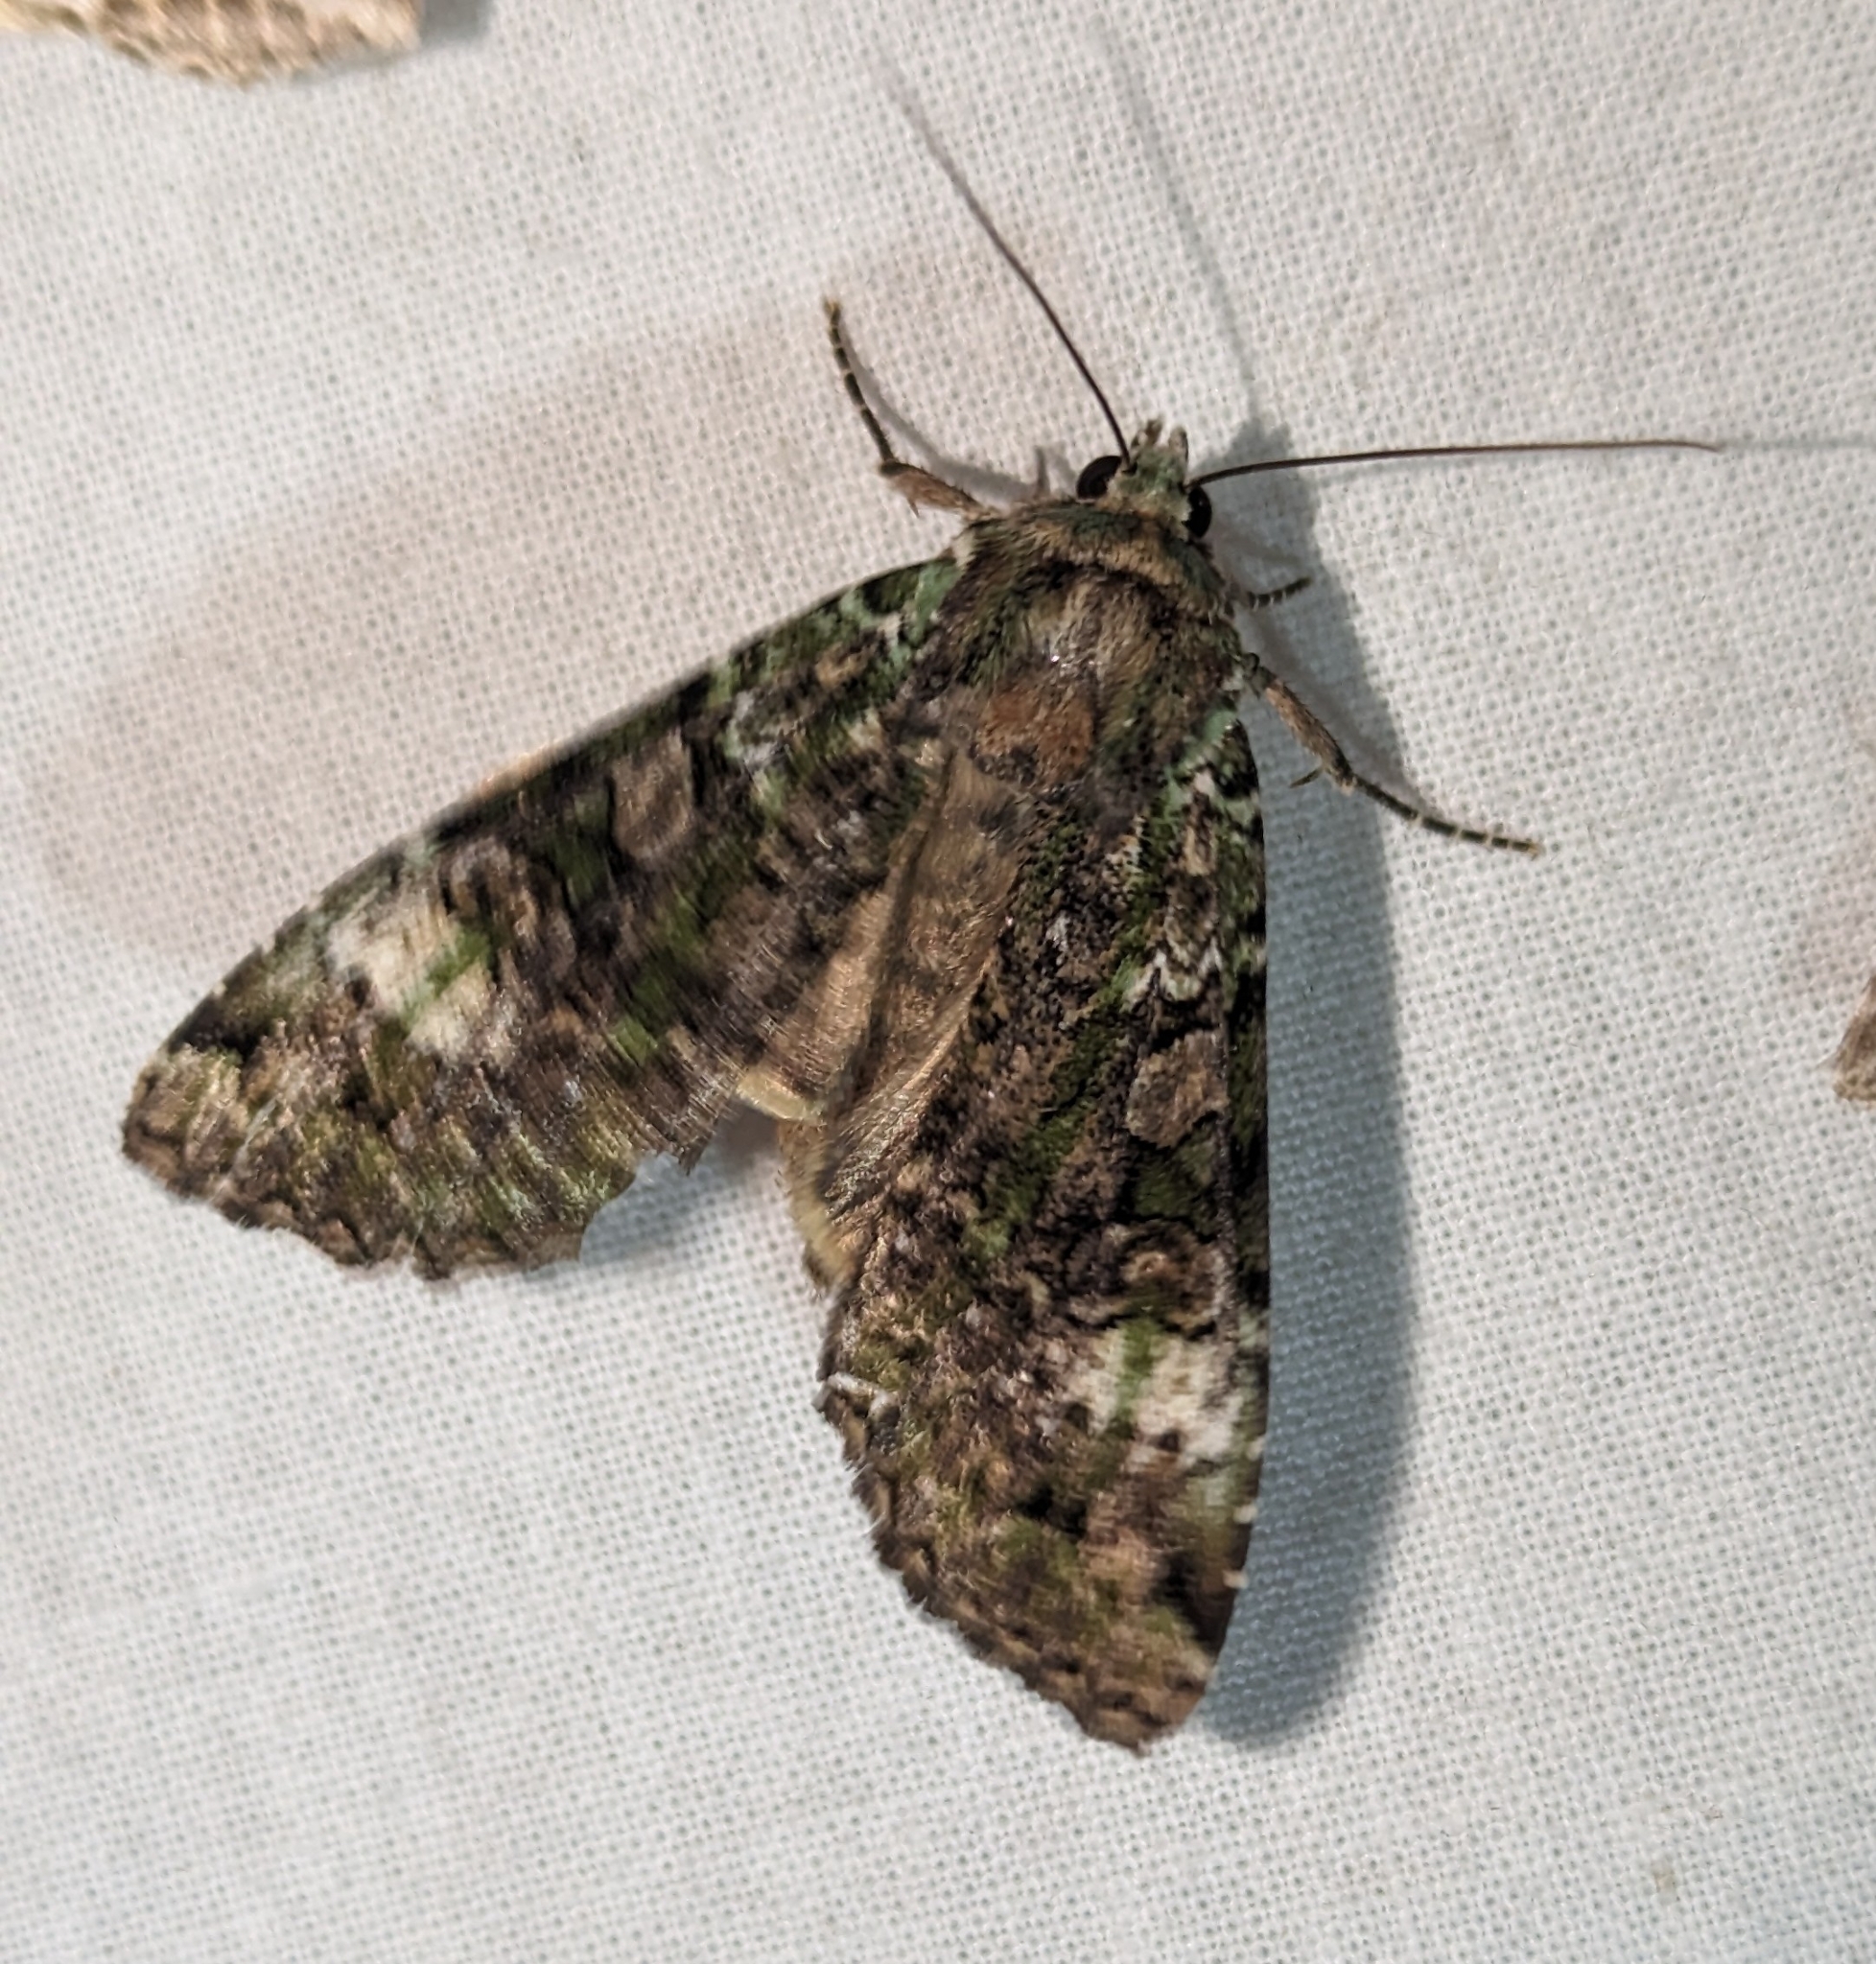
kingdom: Animalia
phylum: Arthropoda
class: Insecta
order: Lepidoptera
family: Noctuidae
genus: Anaplectoides
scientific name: Anaplectoides prasina
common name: Green arches
